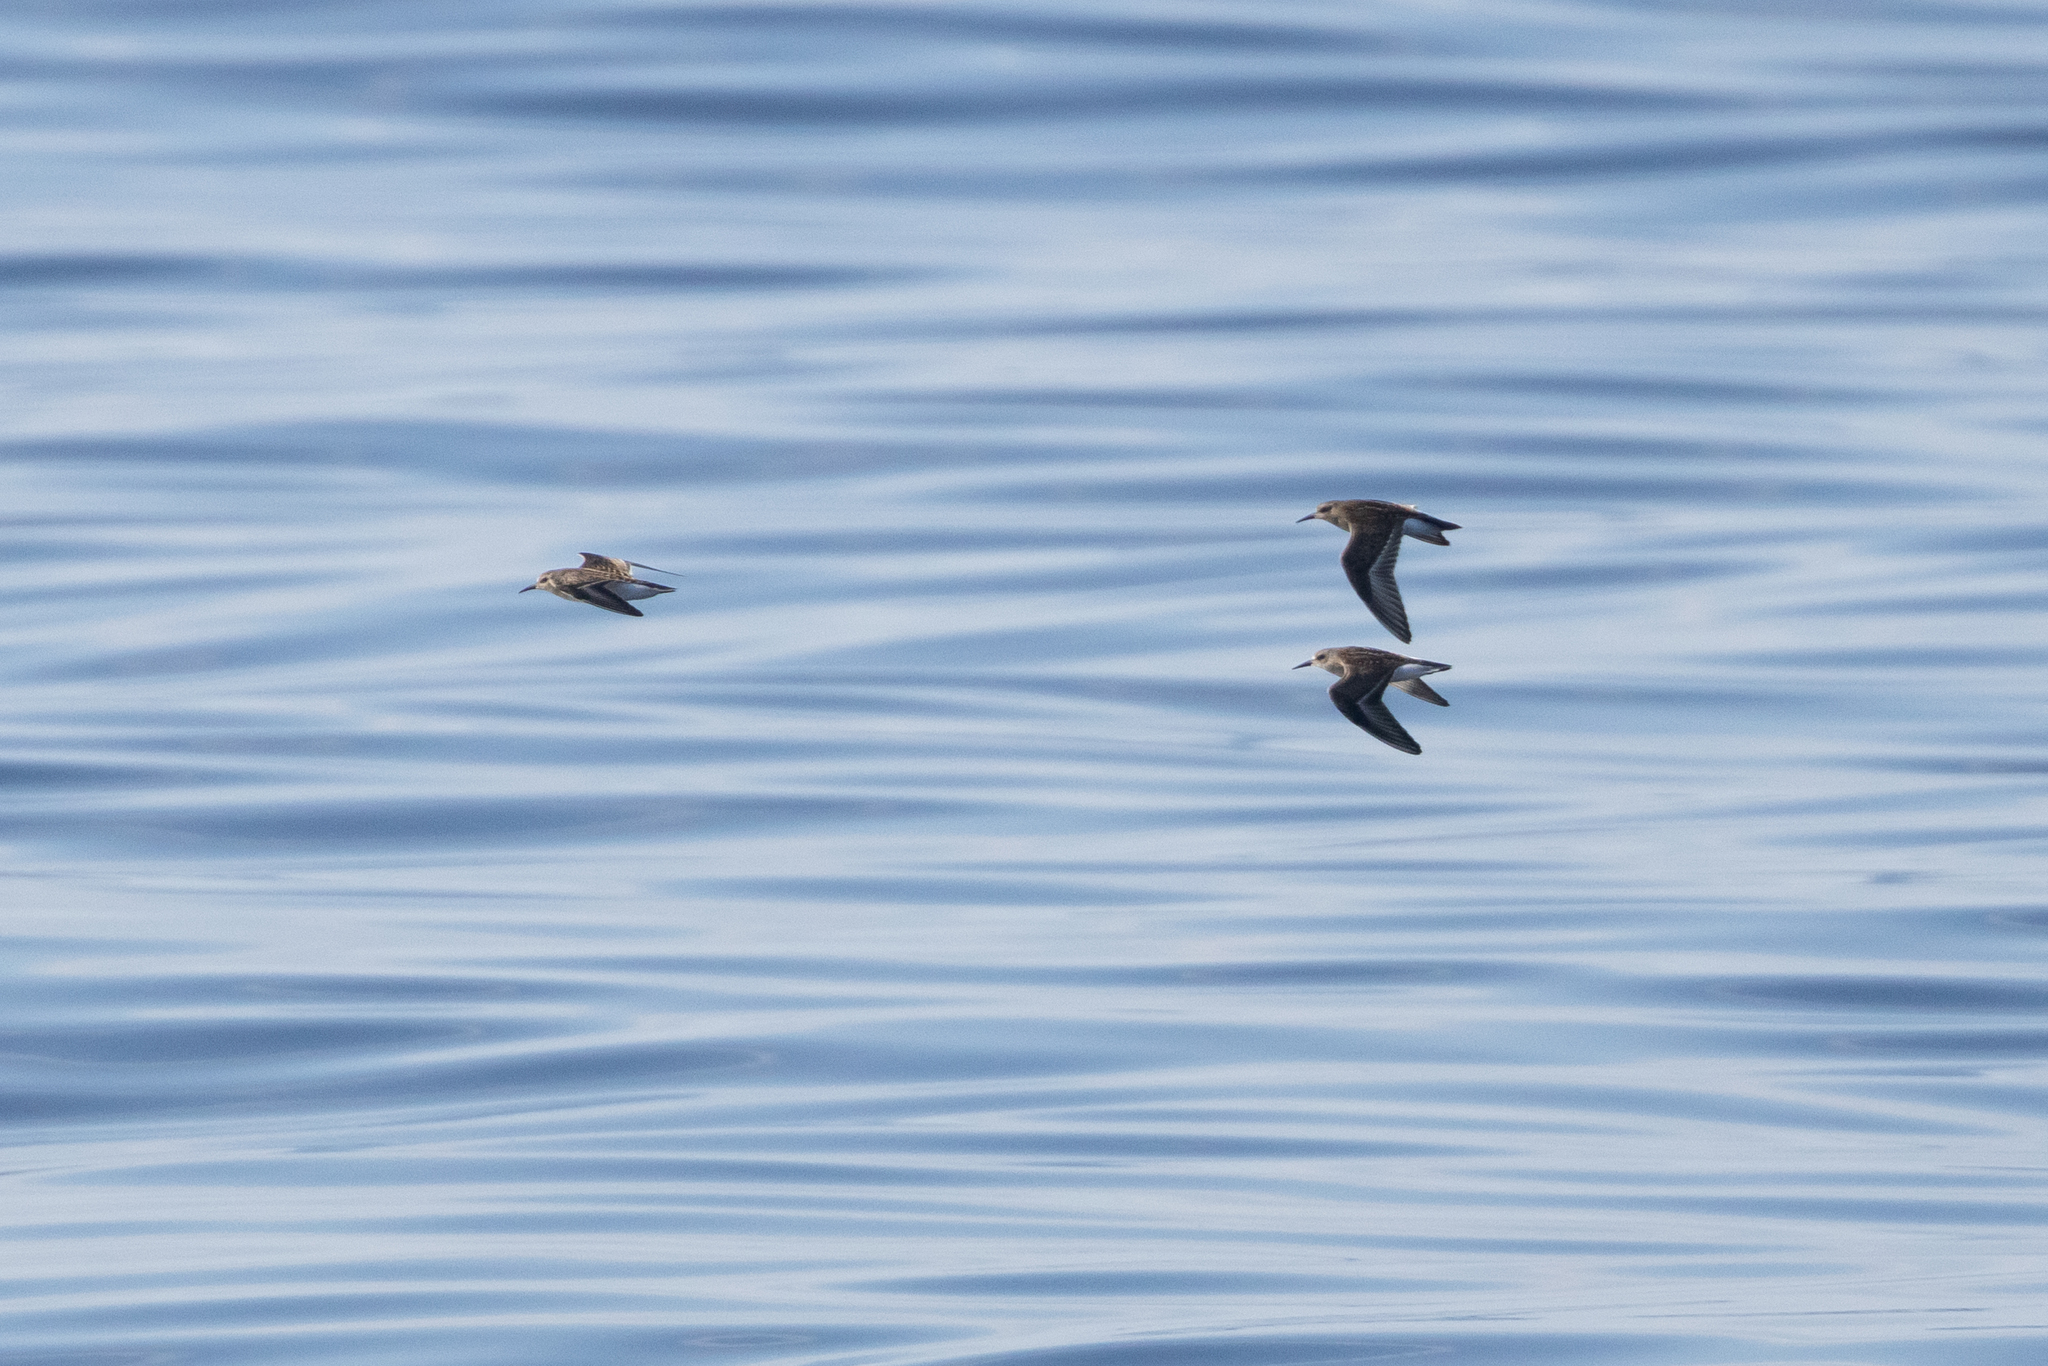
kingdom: Animalia
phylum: Chordata
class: Aves
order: Charadriiformes
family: Scolopacidae
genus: Calidris
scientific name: Calidris minutilla
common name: Least sandpiper
